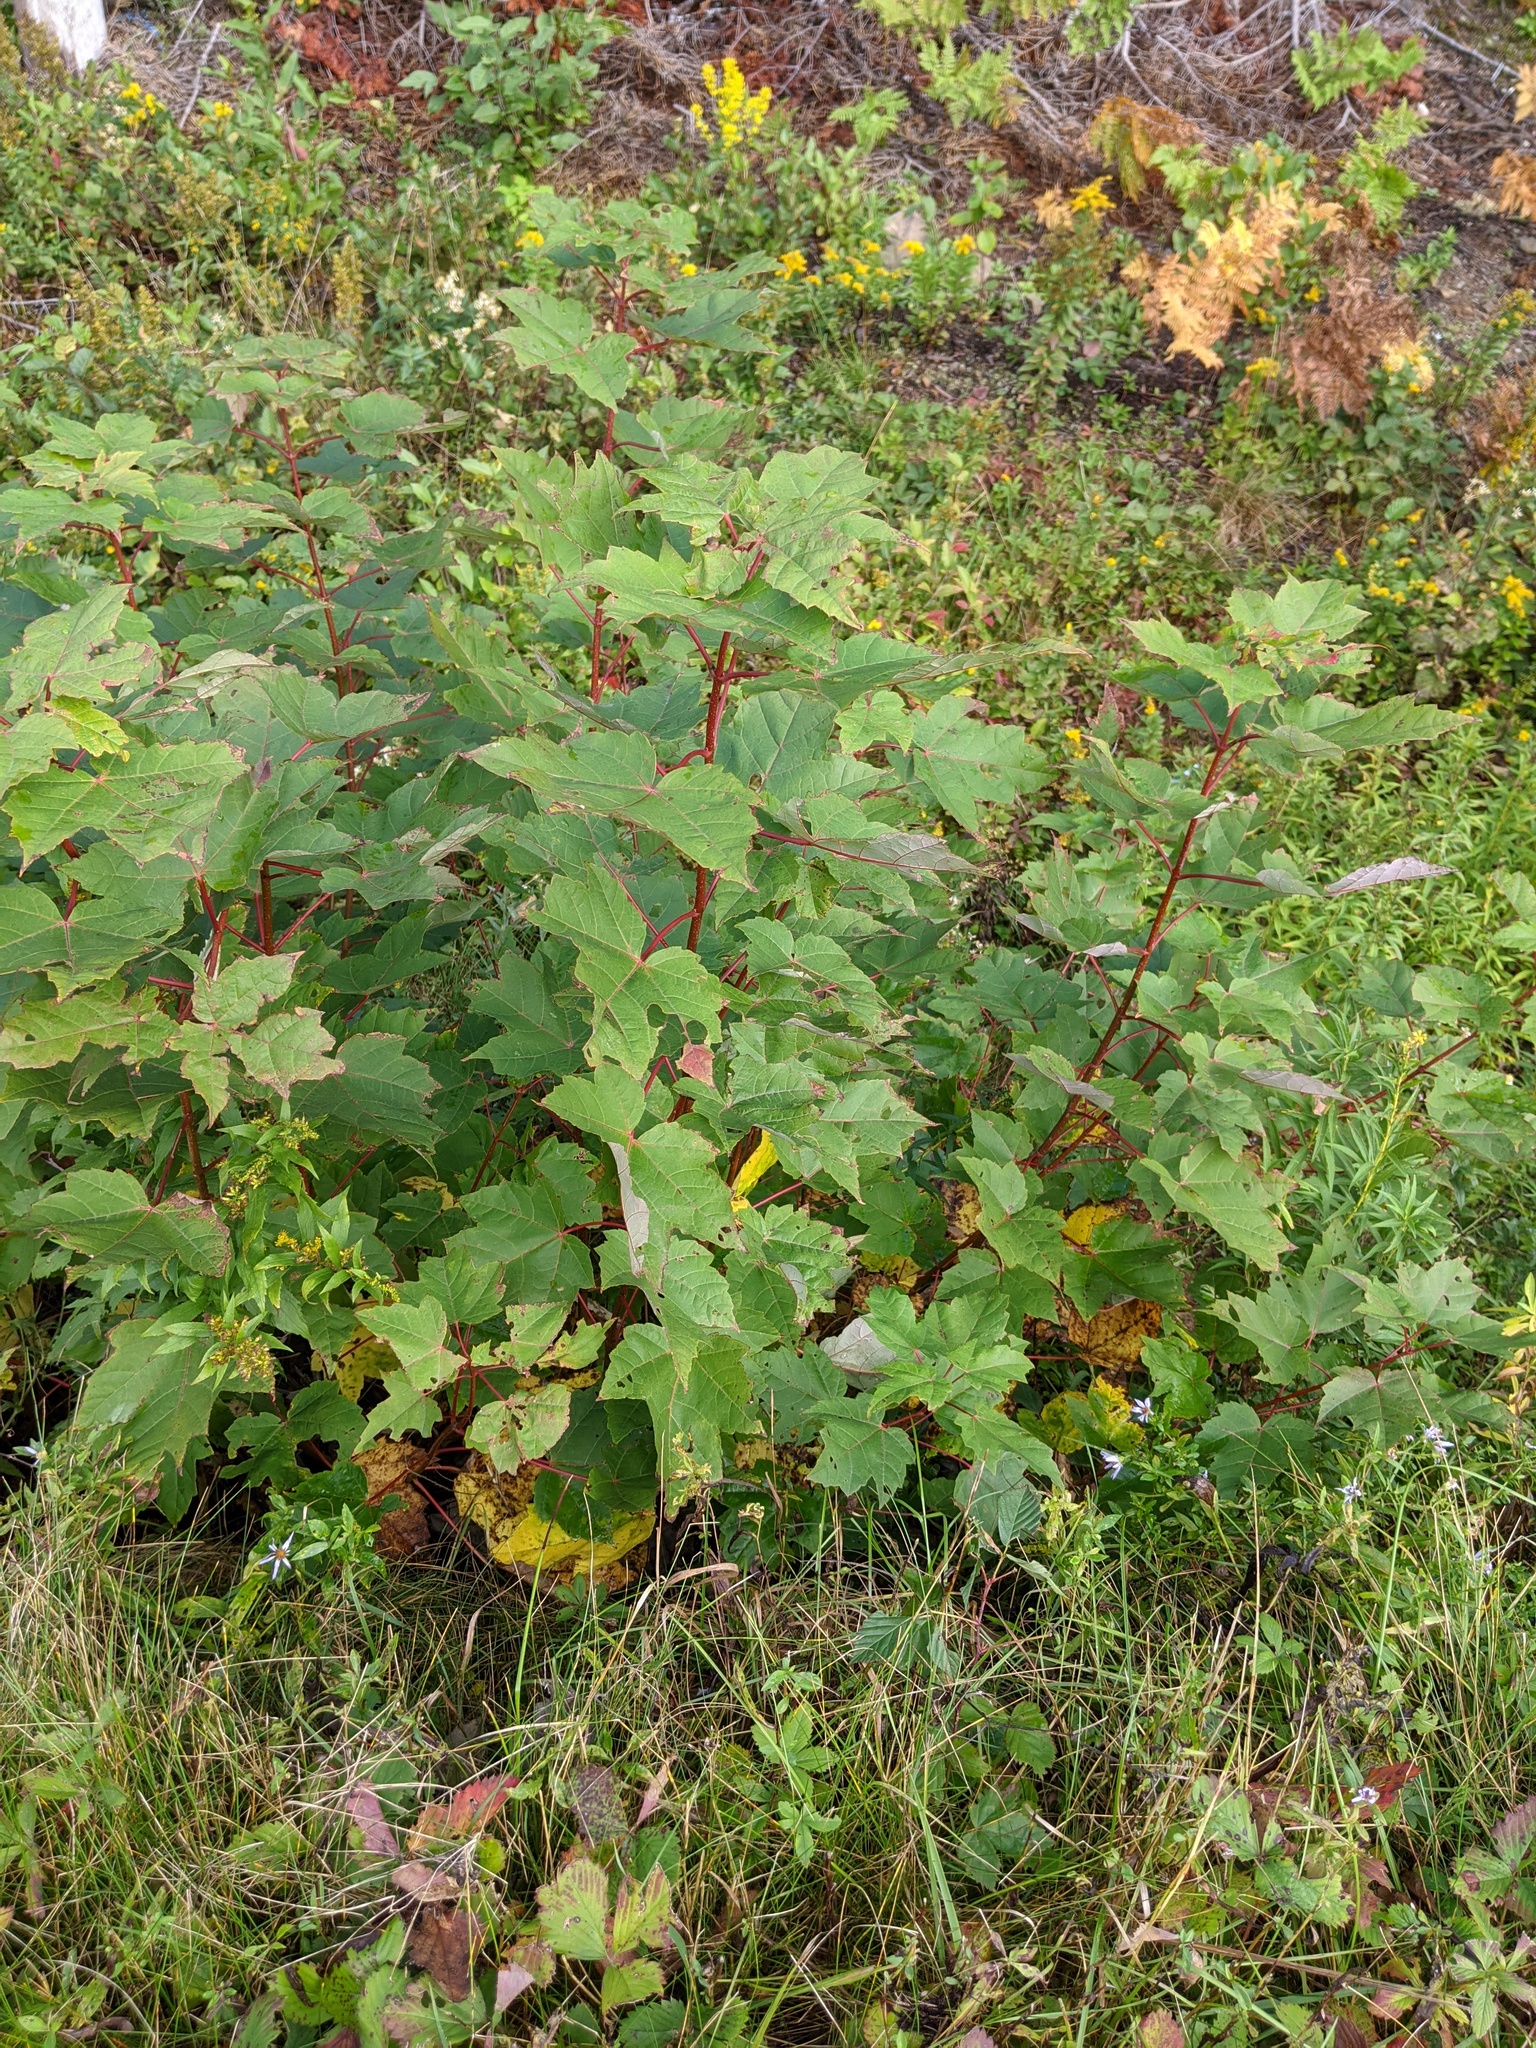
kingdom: Plantae
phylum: Tracheophyta
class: Magnoliopsida
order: Sapindales
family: Sapindaceae
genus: Acer
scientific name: Acer rubrum
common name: Red maple
